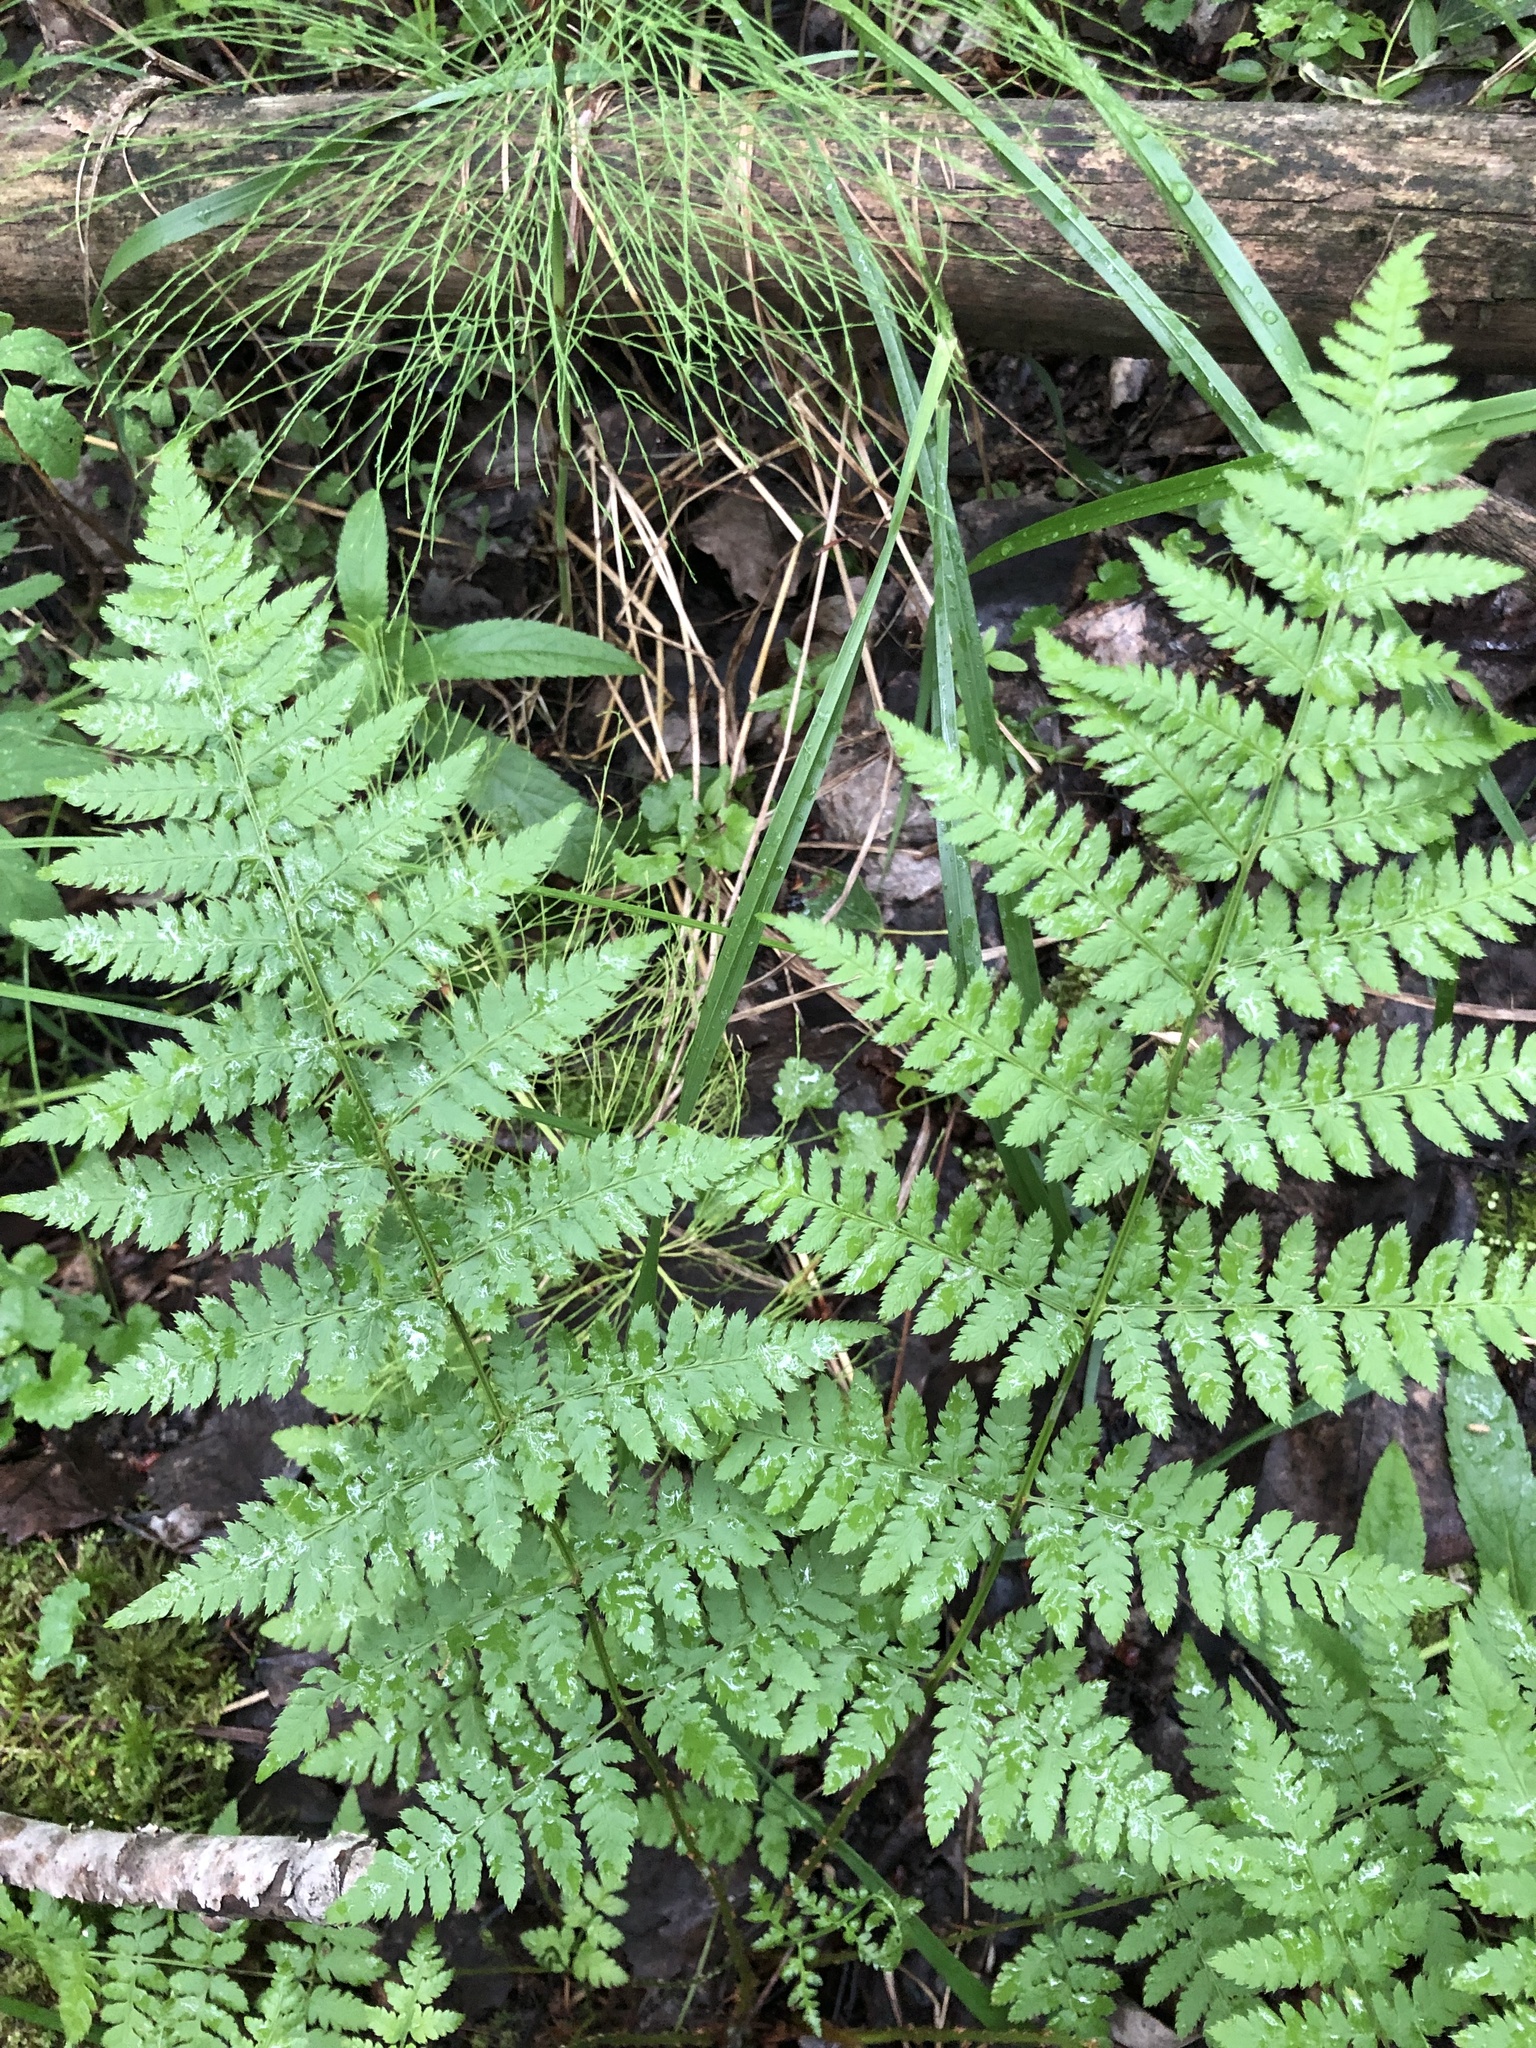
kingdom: Plantae
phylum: Tracheophyta
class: Polypodiopsida
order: Polypodiales
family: Dryopteridaceae
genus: Dryopteris
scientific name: Dryopteris carthusiana
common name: Narrow buckler-fern
